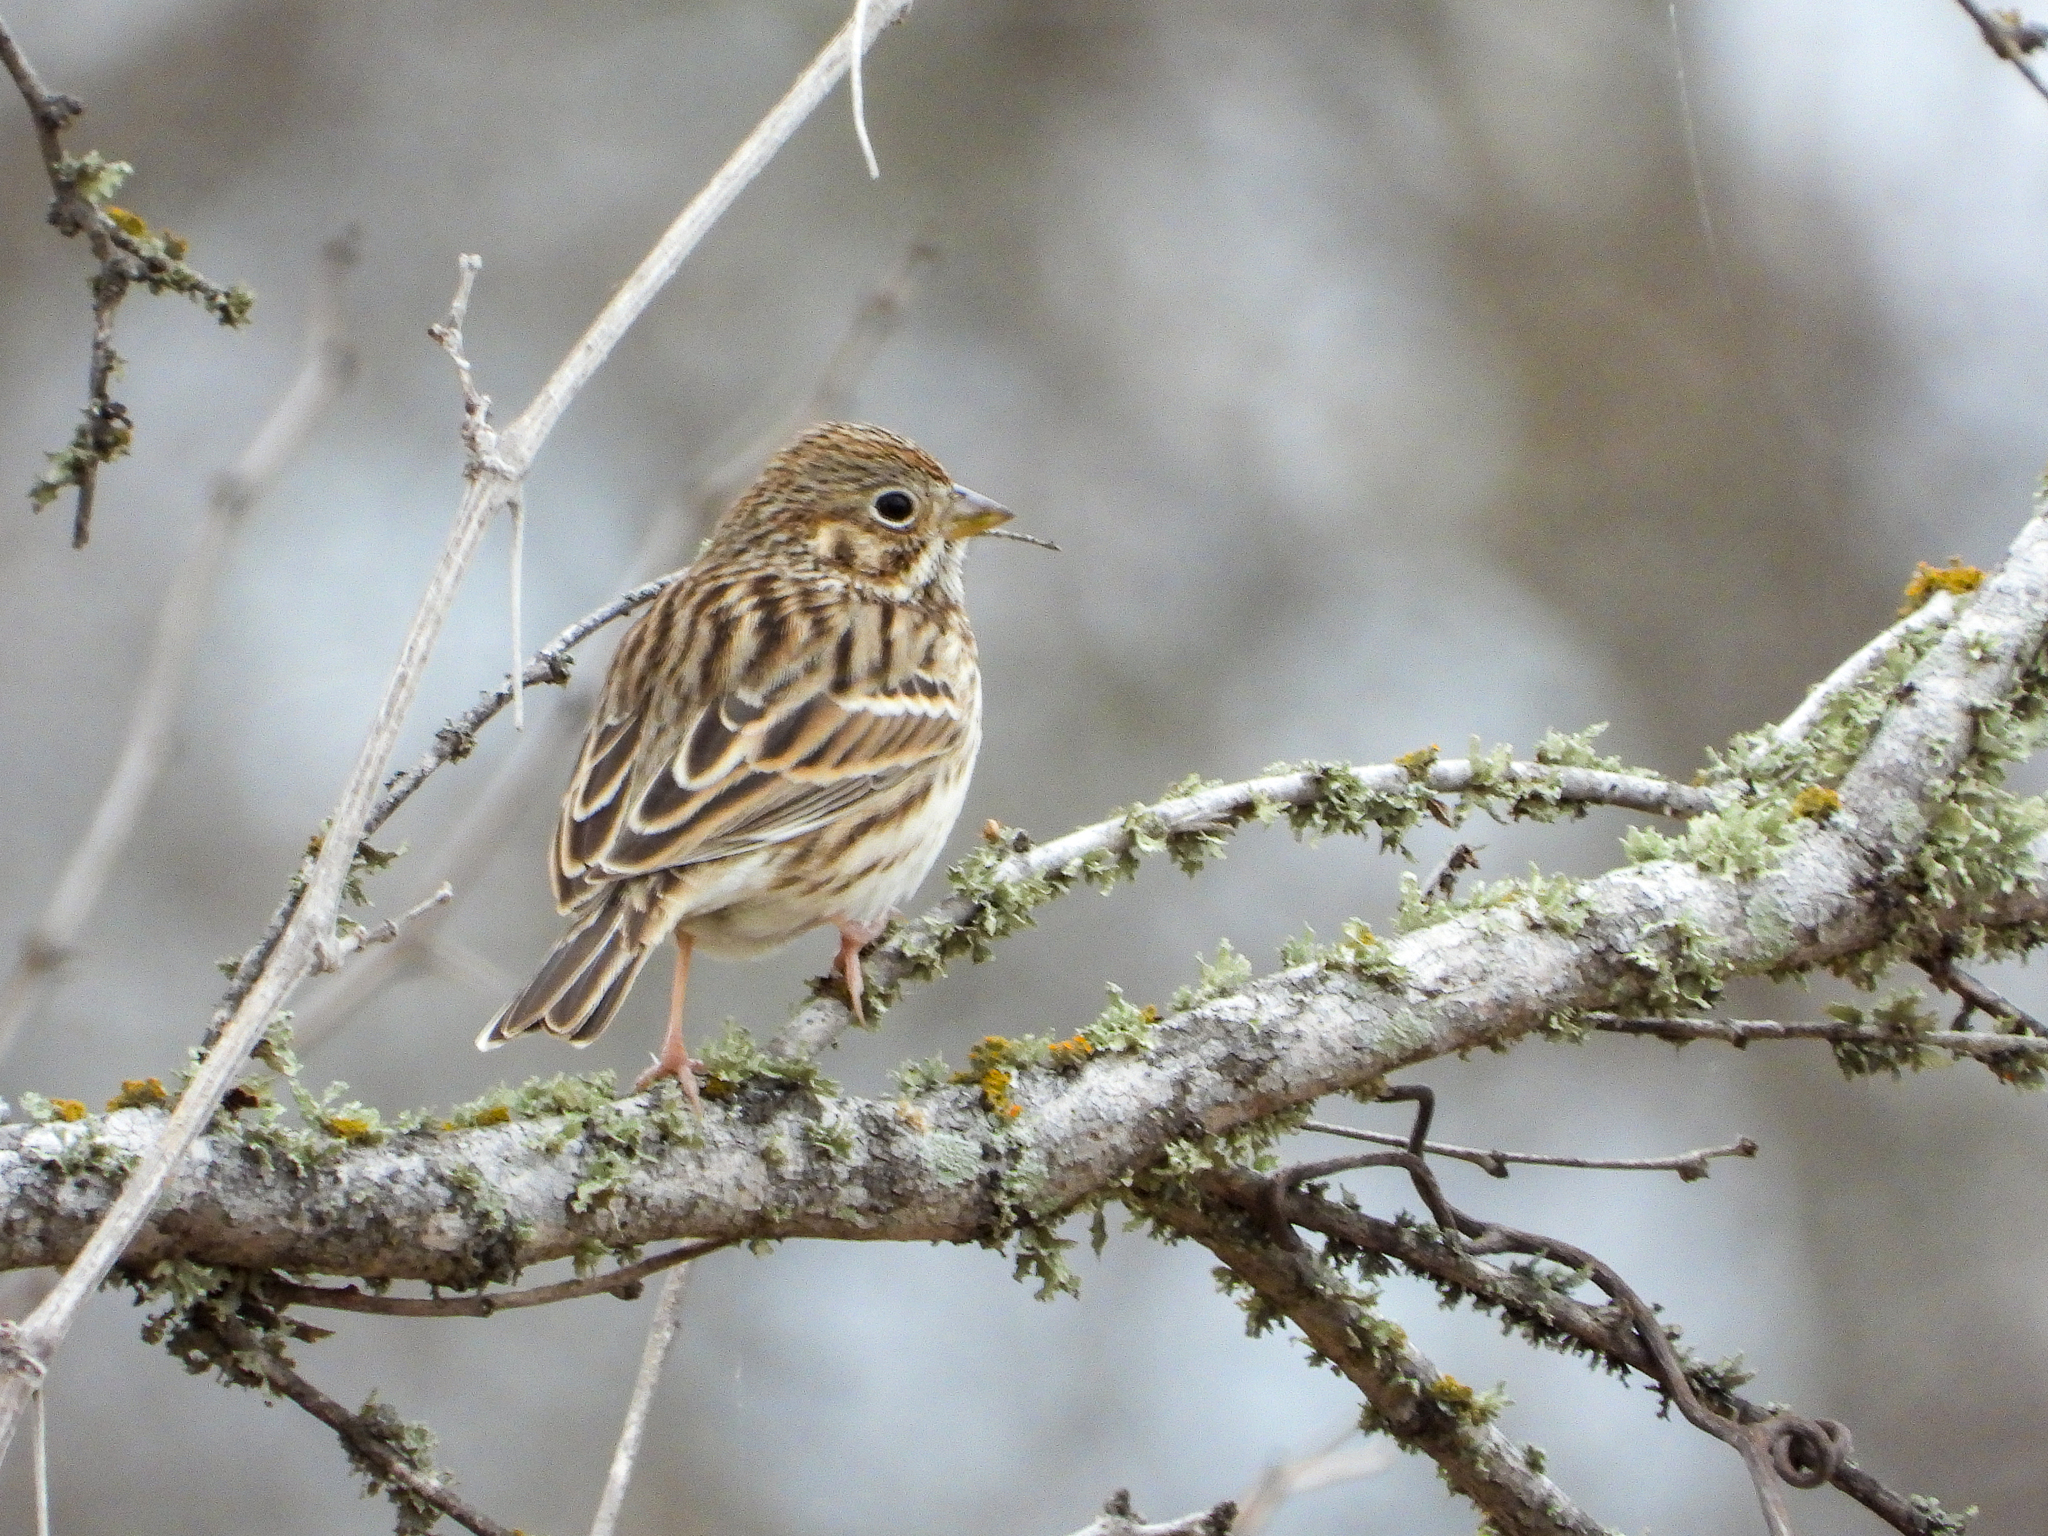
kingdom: Animalia
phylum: Chordata
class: Aves
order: Passeriformes
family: Passerellidae
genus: Pooecetes
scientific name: Pooecetes gramineus
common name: Vesper sparrow
